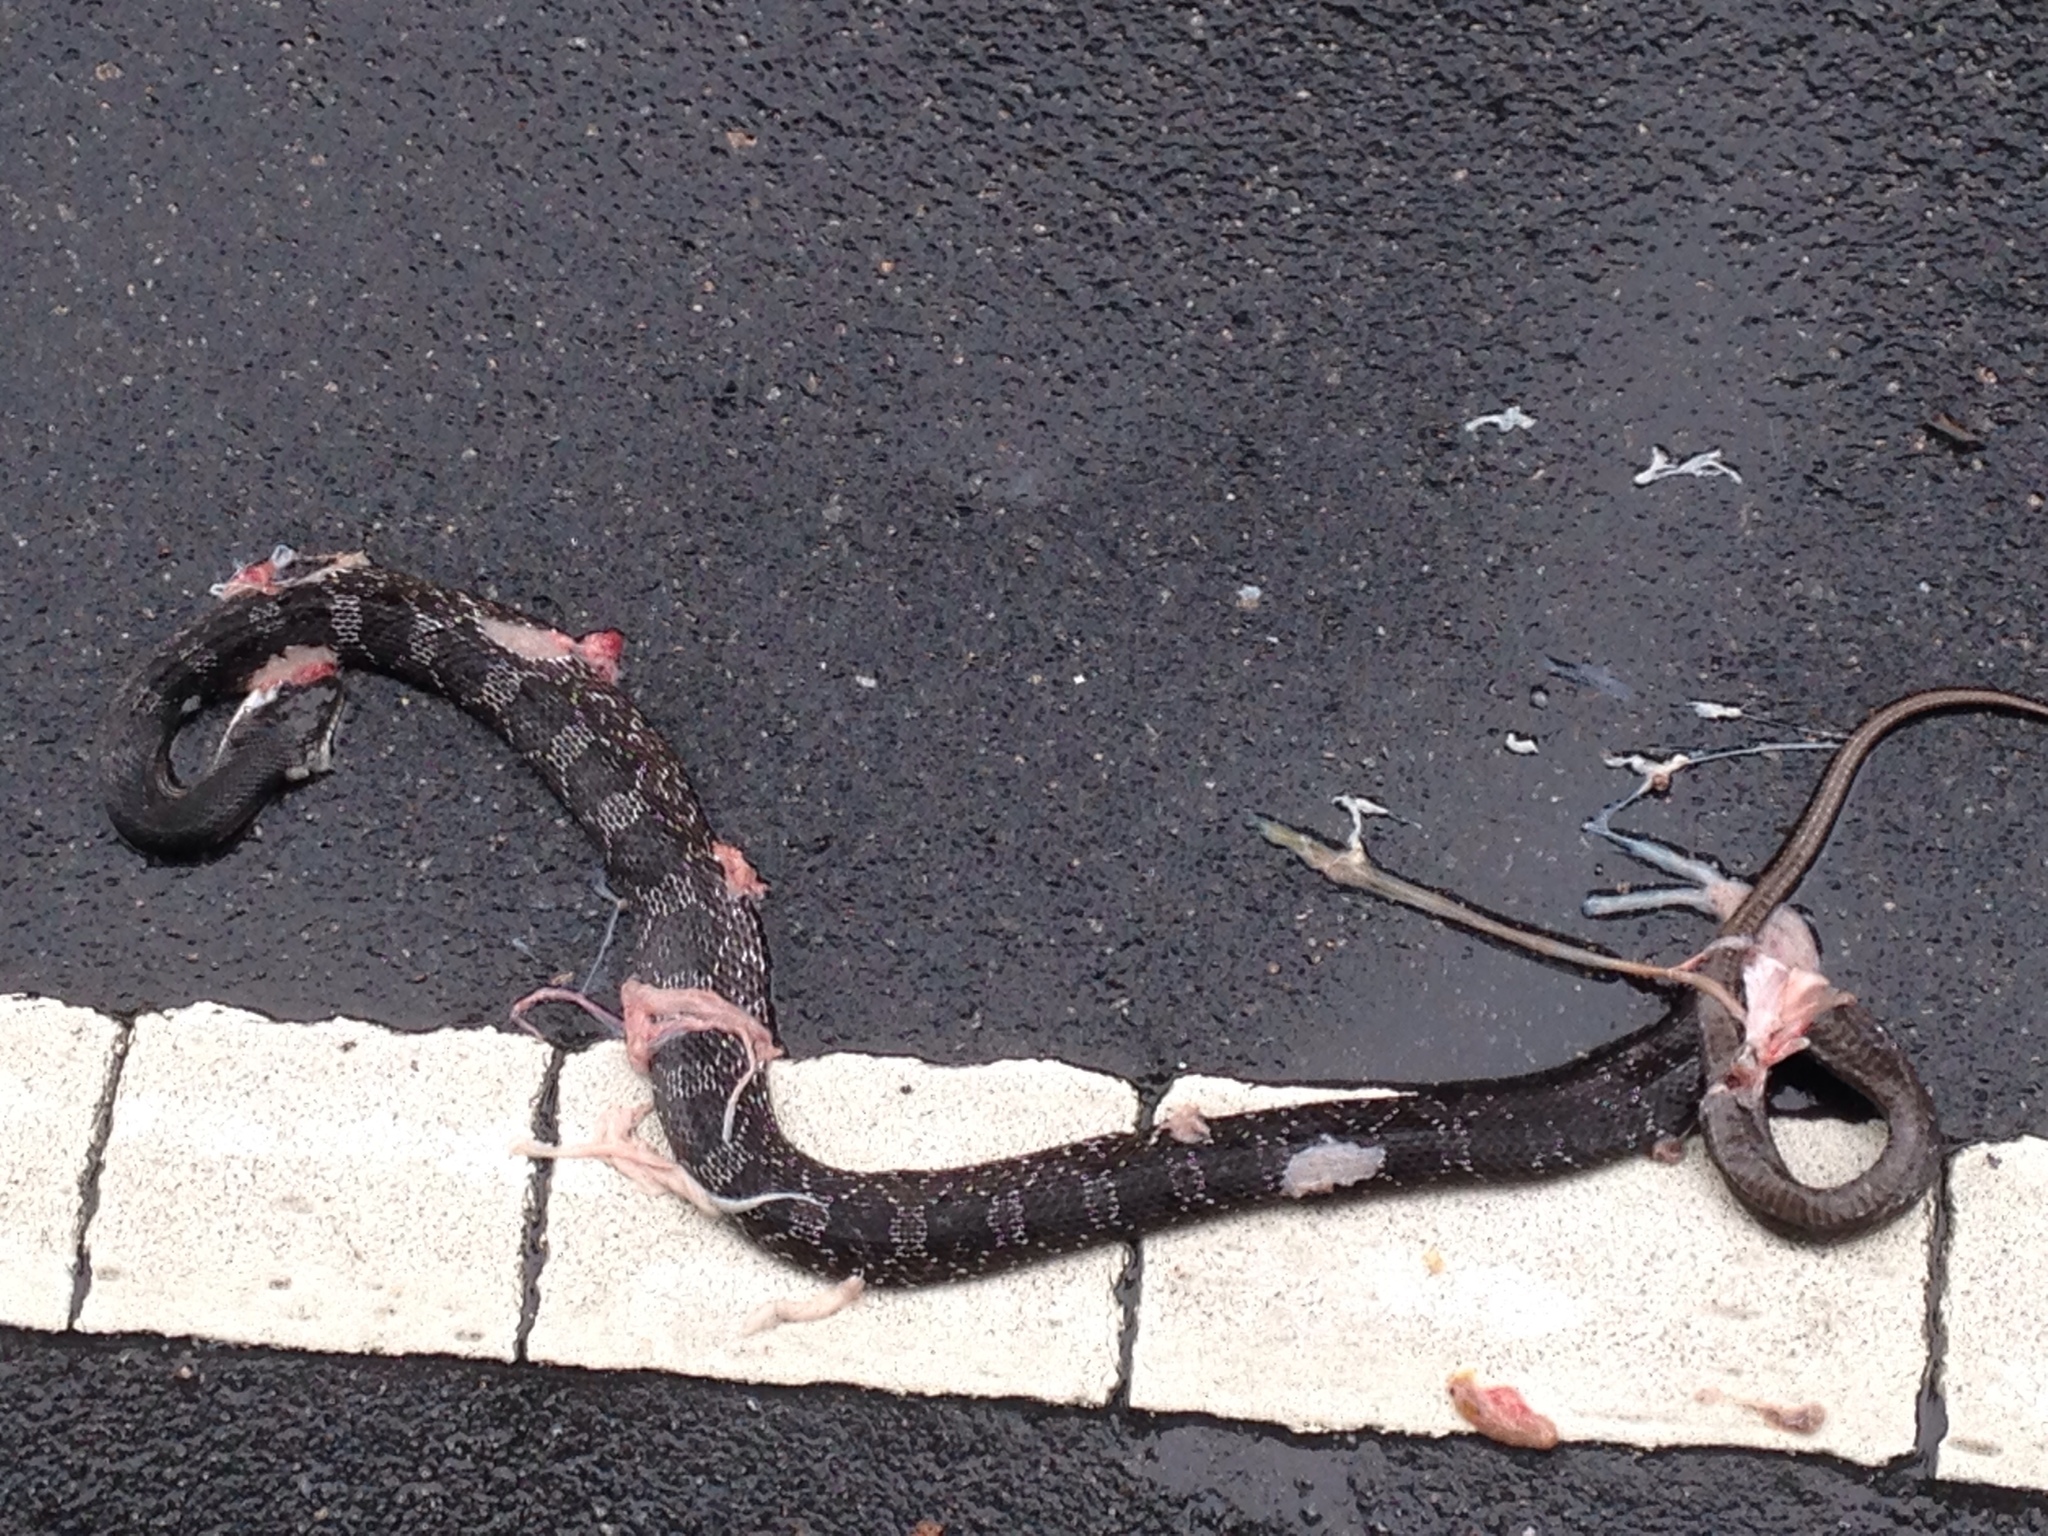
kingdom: Animalia
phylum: Chordata
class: Squamata
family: Colubridae
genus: Pantherophis
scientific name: Pantherophis alleghaniensis
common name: Eastern rat snake
